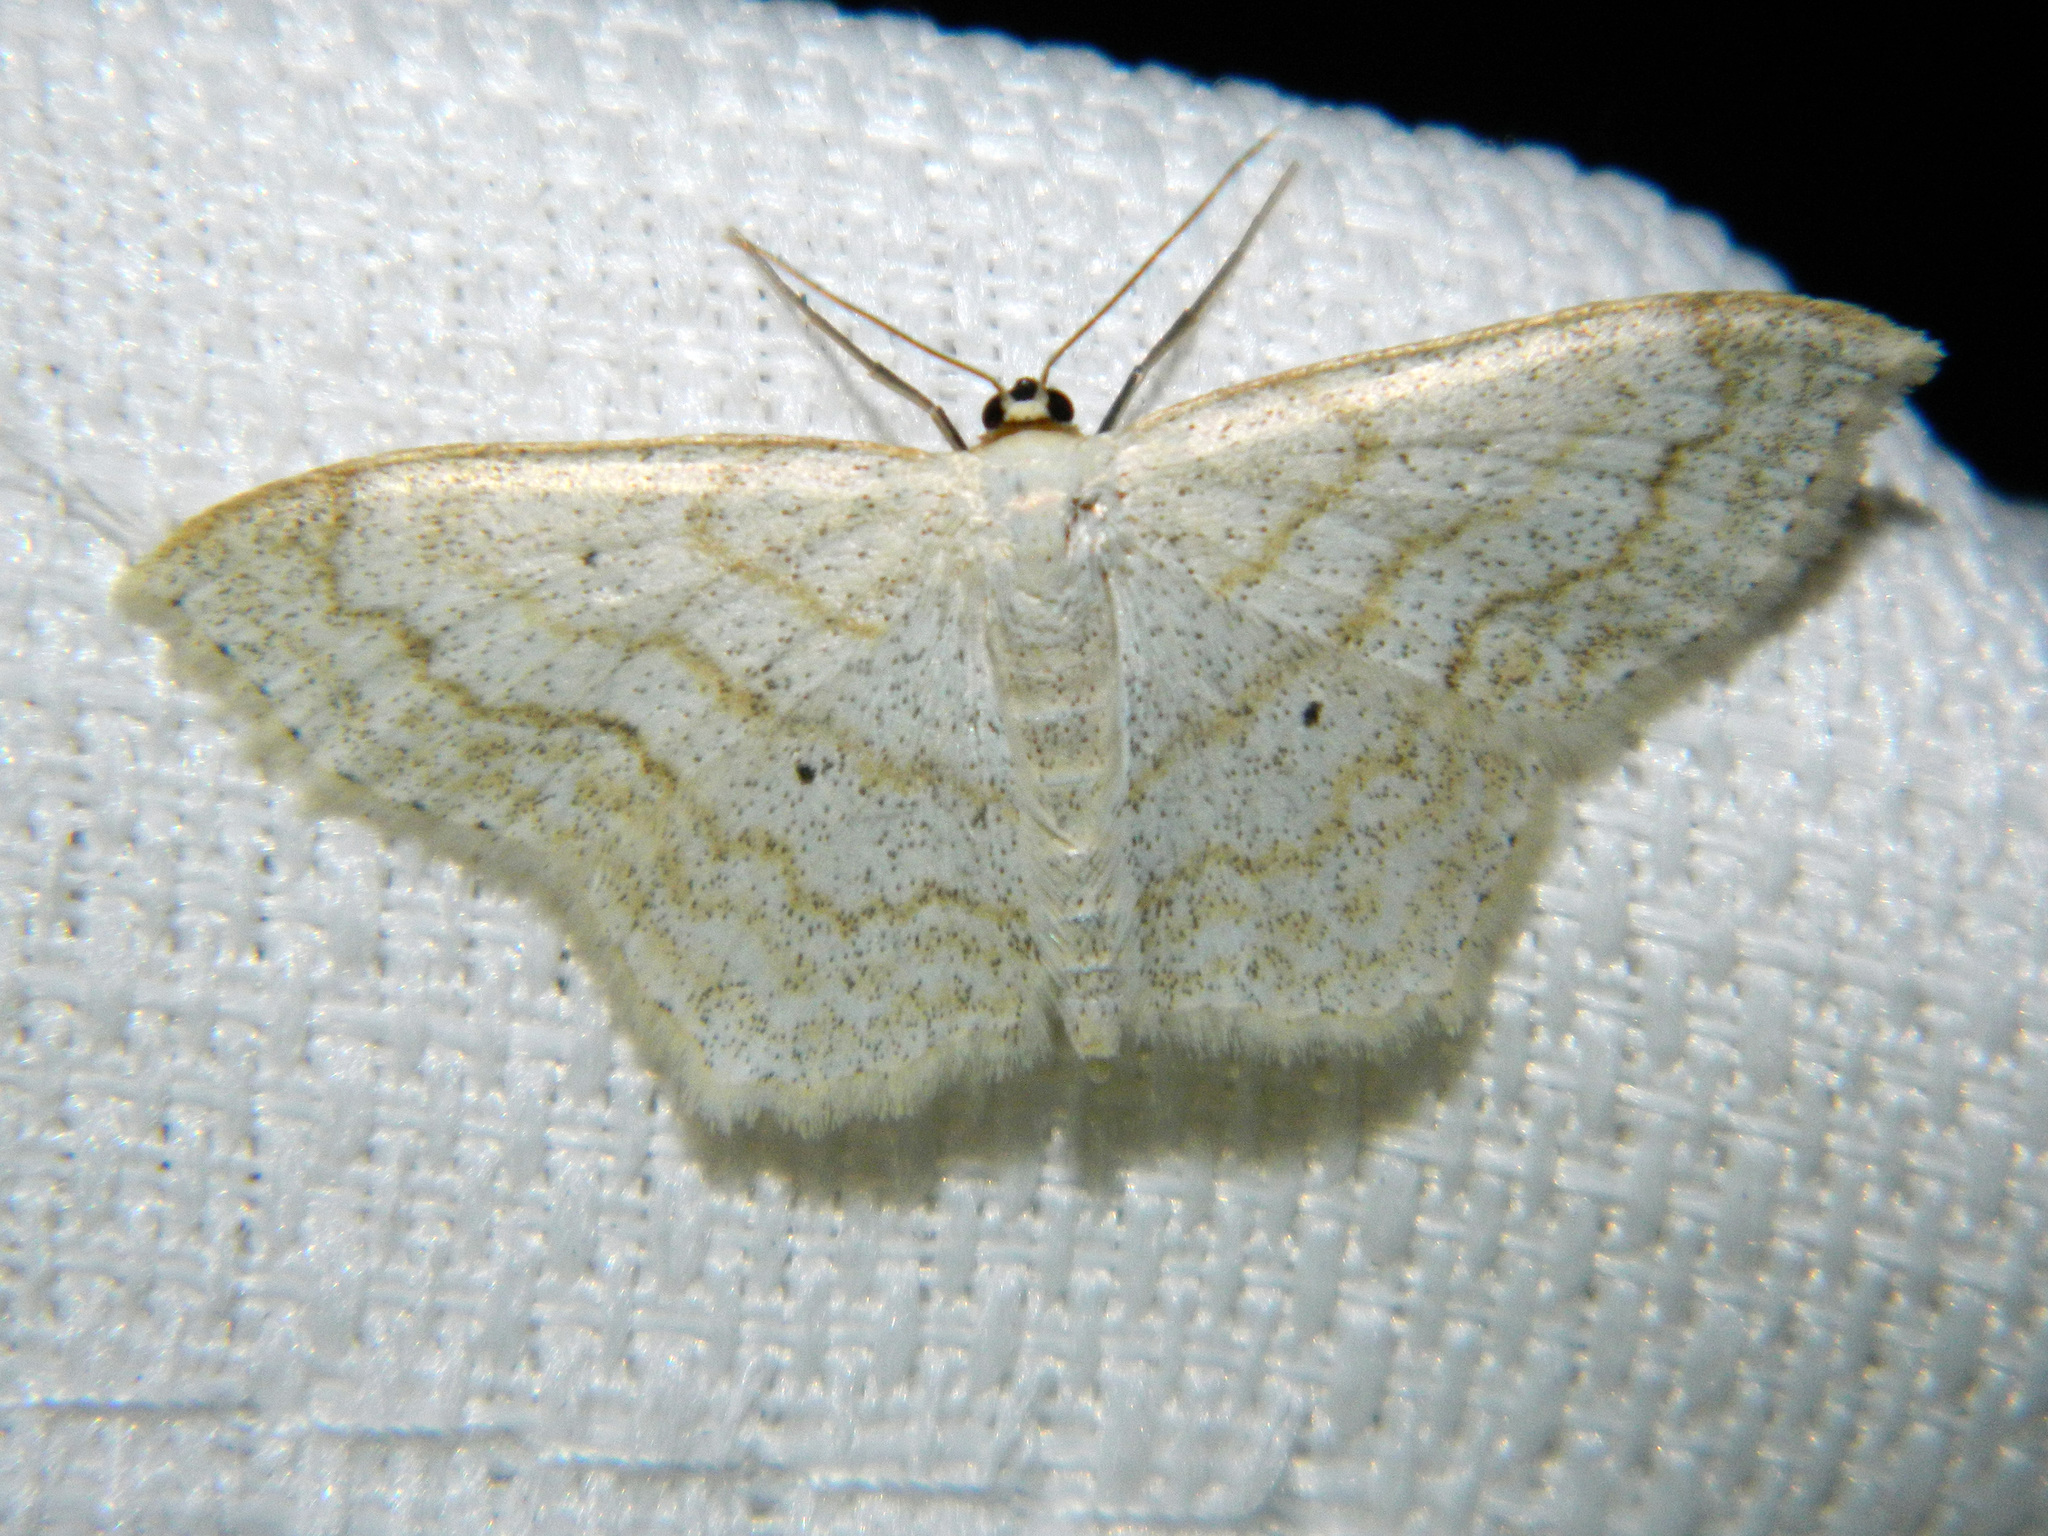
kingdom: Animalia
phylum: Arthropoda
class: Insecta
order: Lepidoptera
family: Geometridae
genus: Scopula
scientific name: Scopula limboundata
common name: Large lace border
